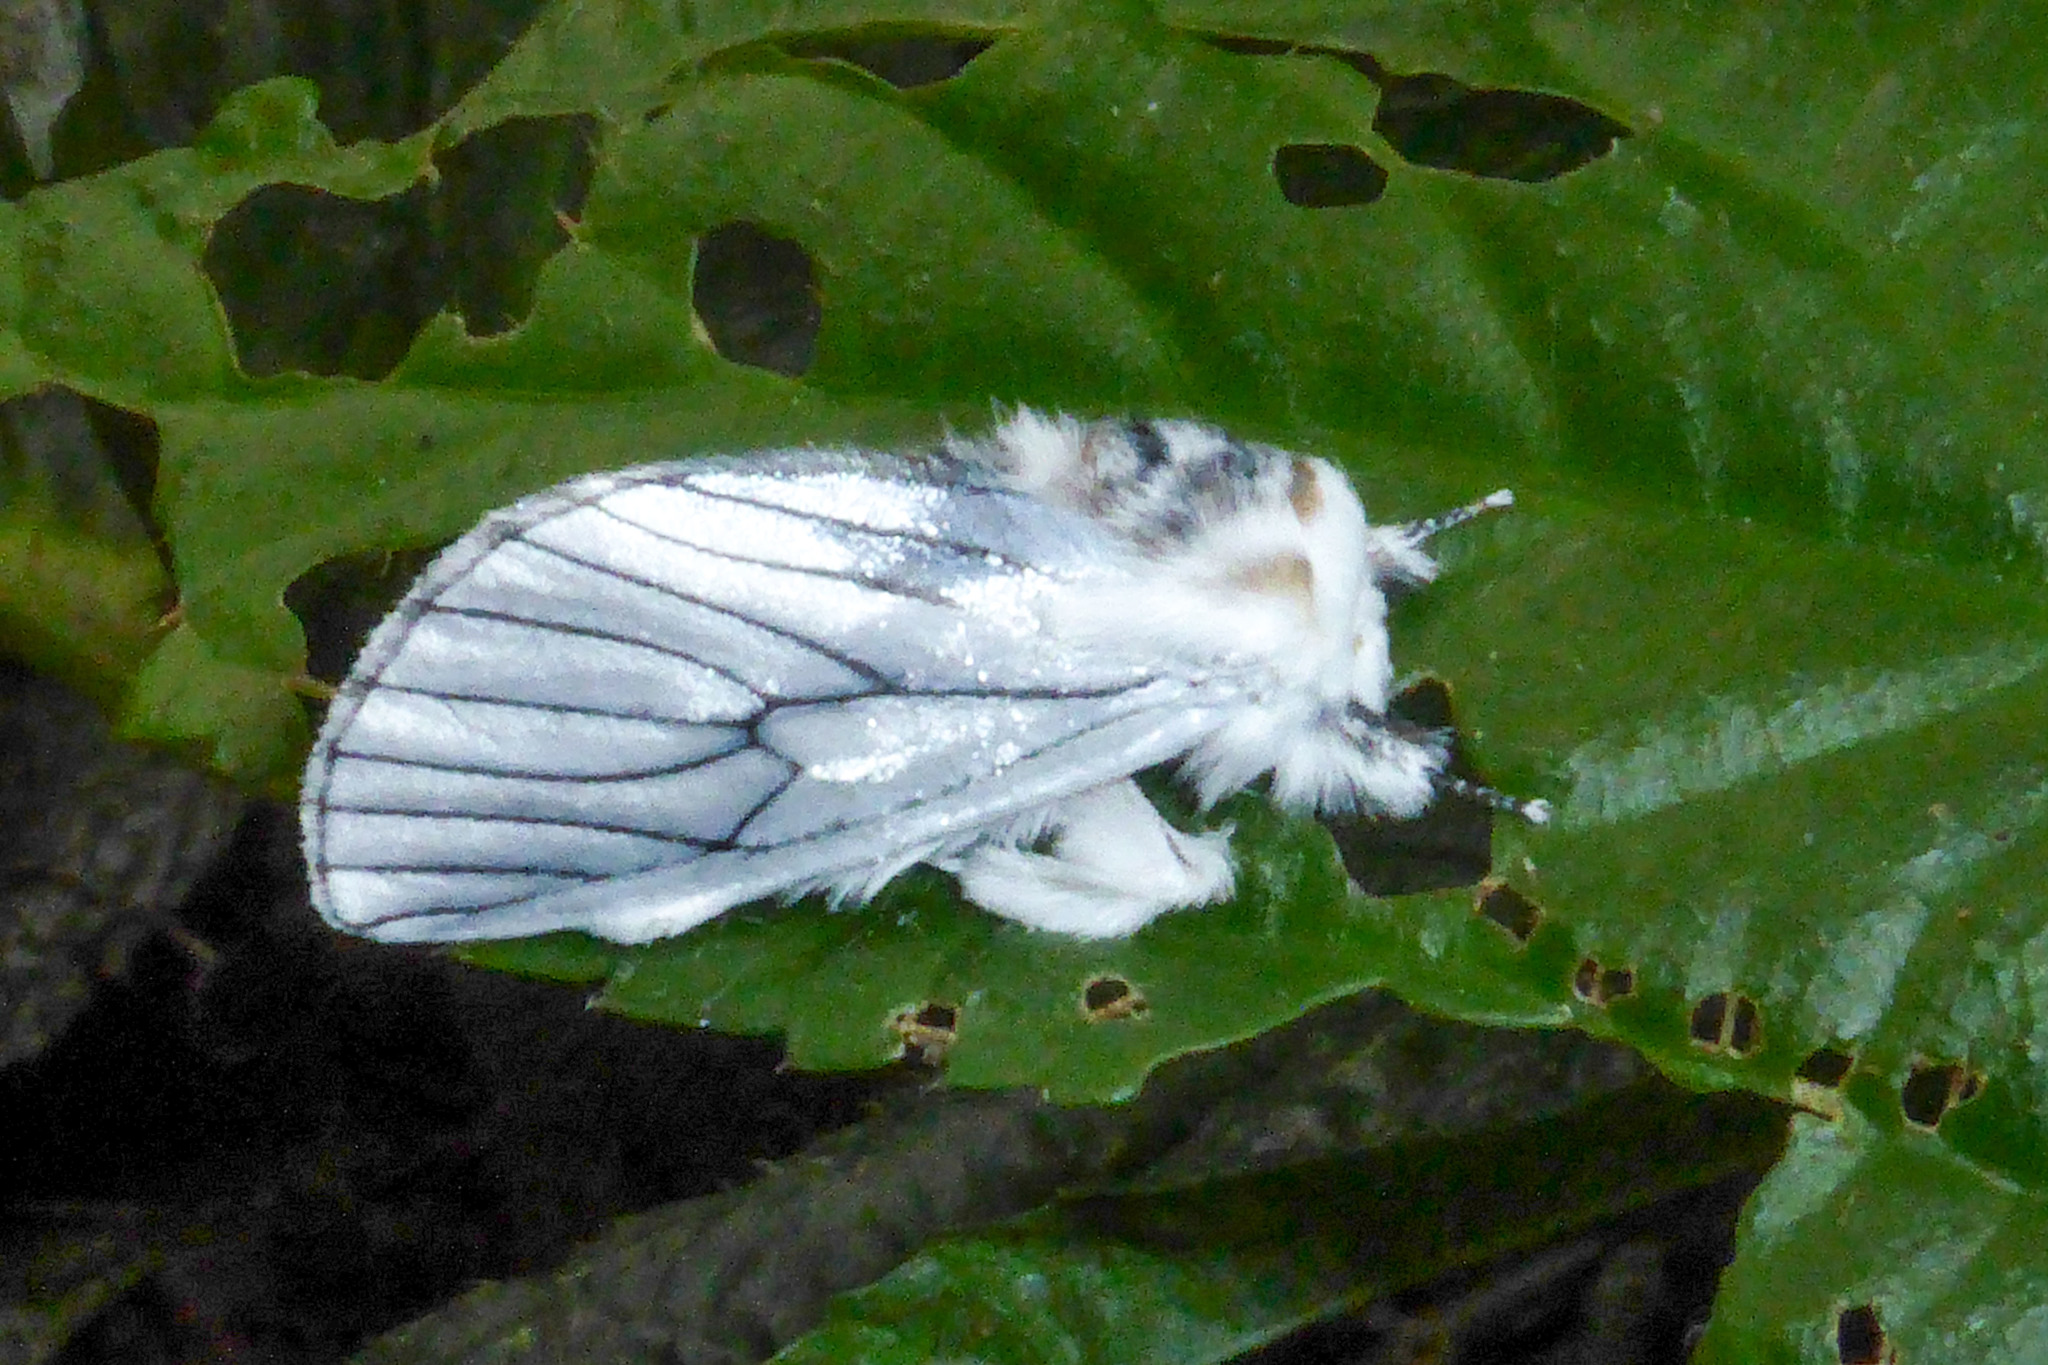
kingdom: Animalia
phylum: Arthropoda
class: Insecta
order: Lepidoptera
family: Erebidae
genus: Himala
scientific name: Himala argentea
